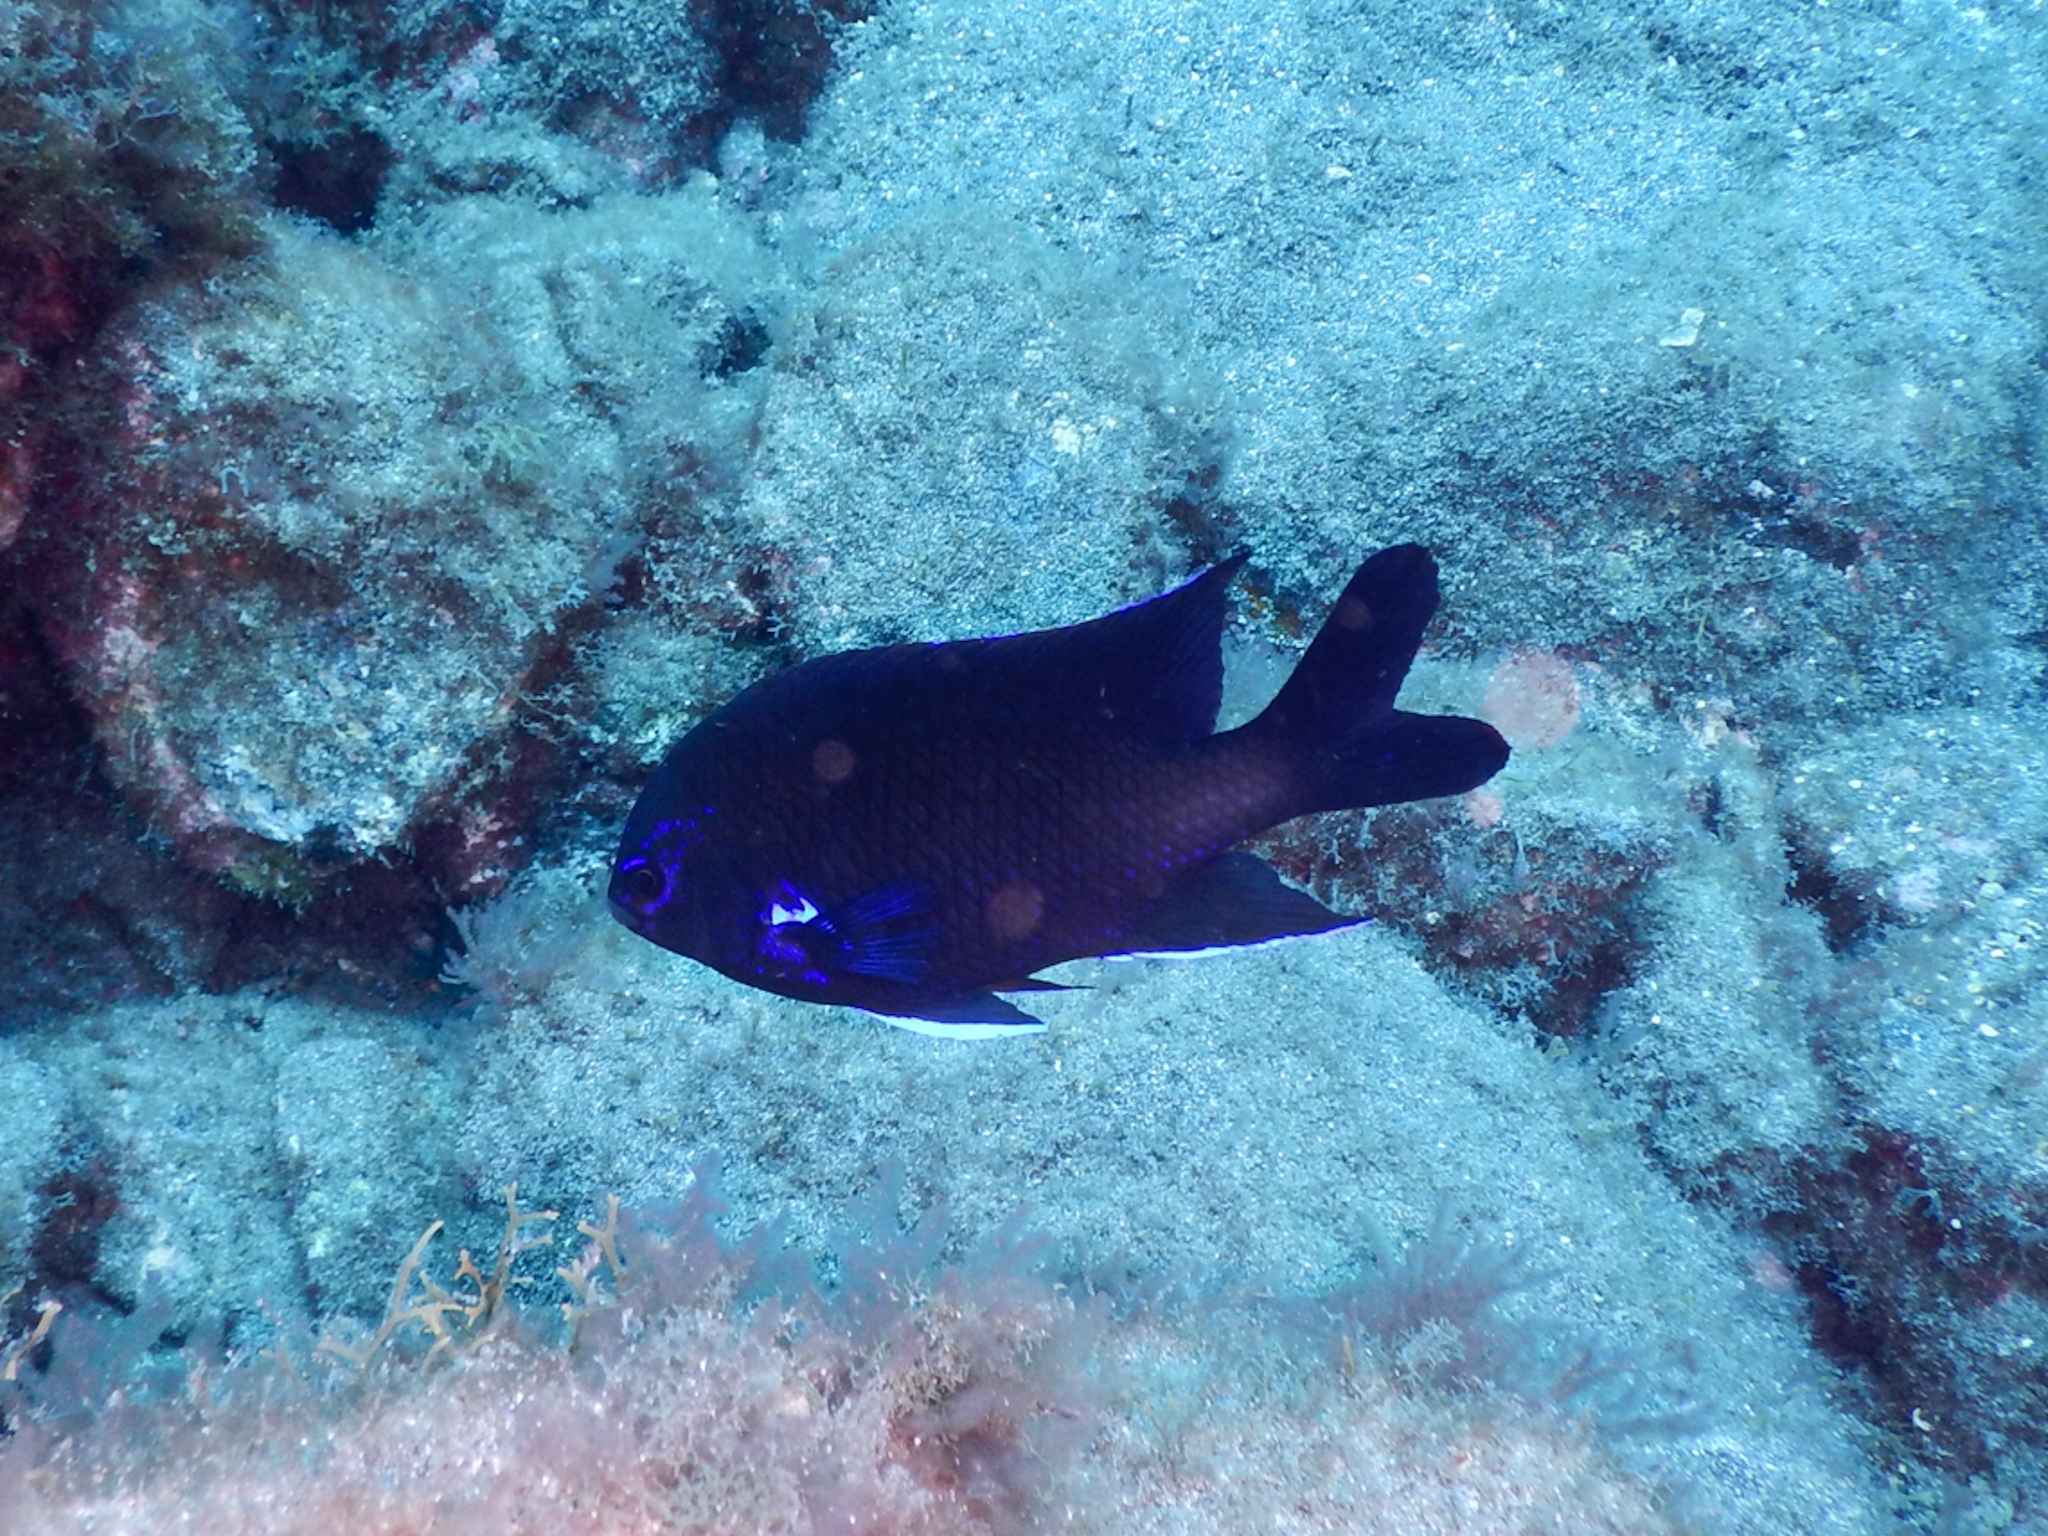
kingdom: Animalia
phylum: Chordata
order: Perciformes
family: Pomacentridae
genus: Similiparma
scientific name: Similiparma lurida
